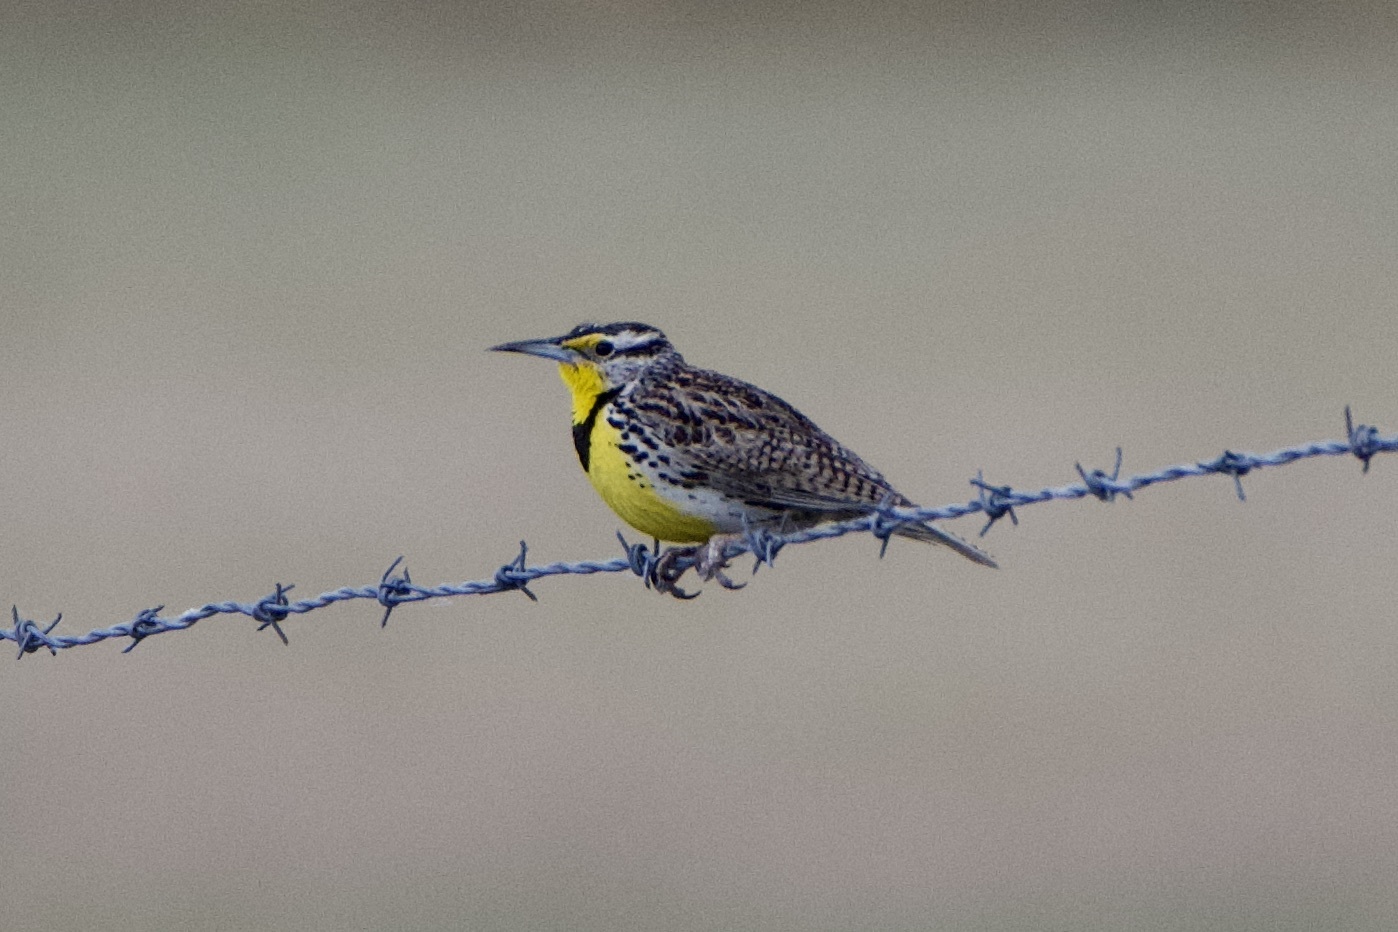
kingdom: Animalia
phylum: Chordata
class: Aves
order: Passeriformes
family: Icteridae
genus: Sturnella
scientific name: Sturnella neglecta
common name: Western meadowlark
